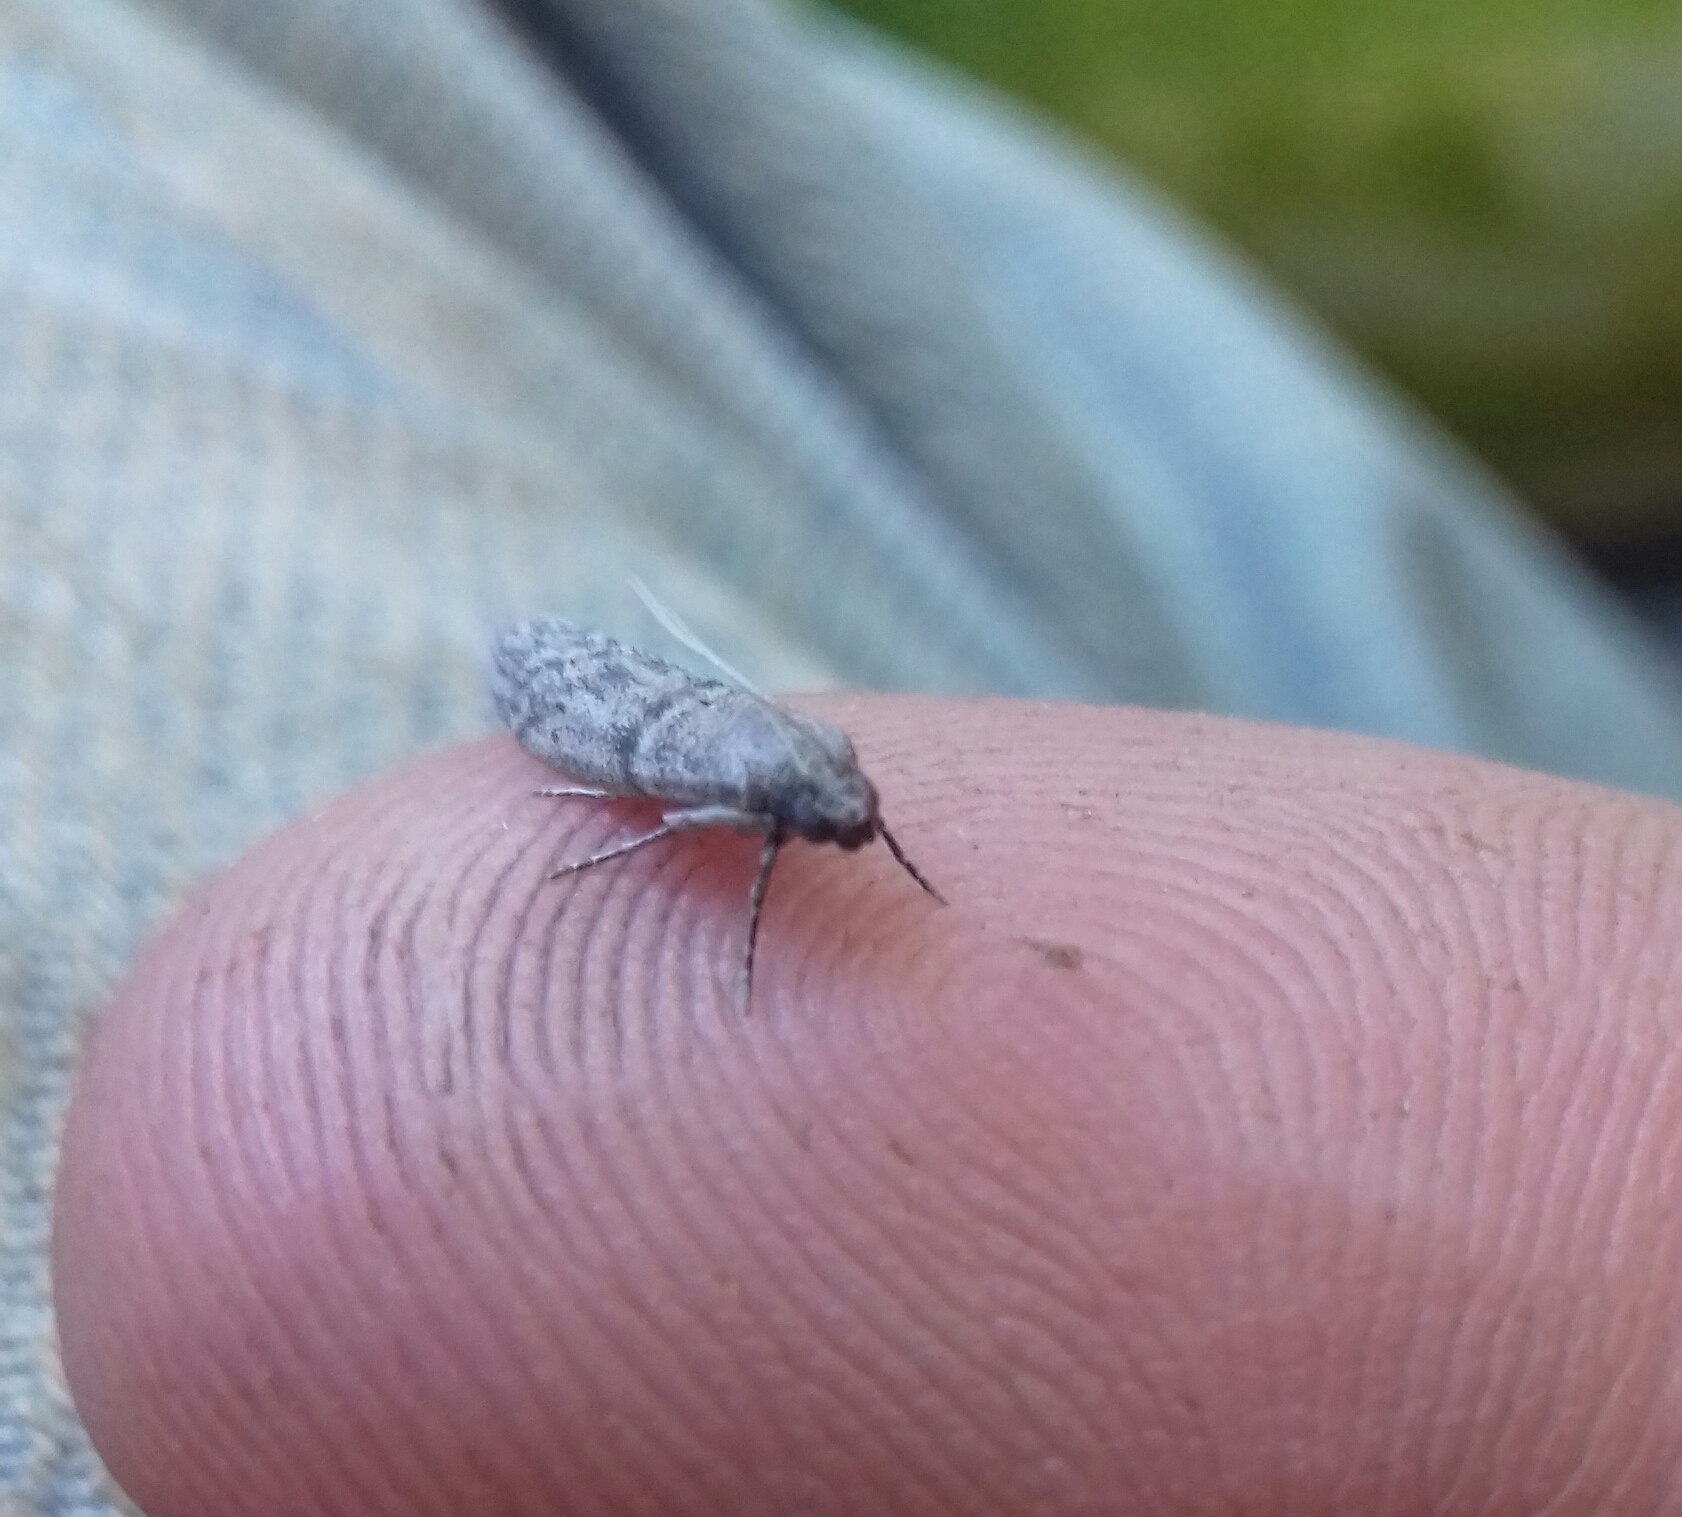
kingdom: Animalia
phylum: Arthropoda
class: Insecta
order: Lepidoptera
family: Pyralidae
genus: Ephestia
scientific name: Ephestia parasitella
